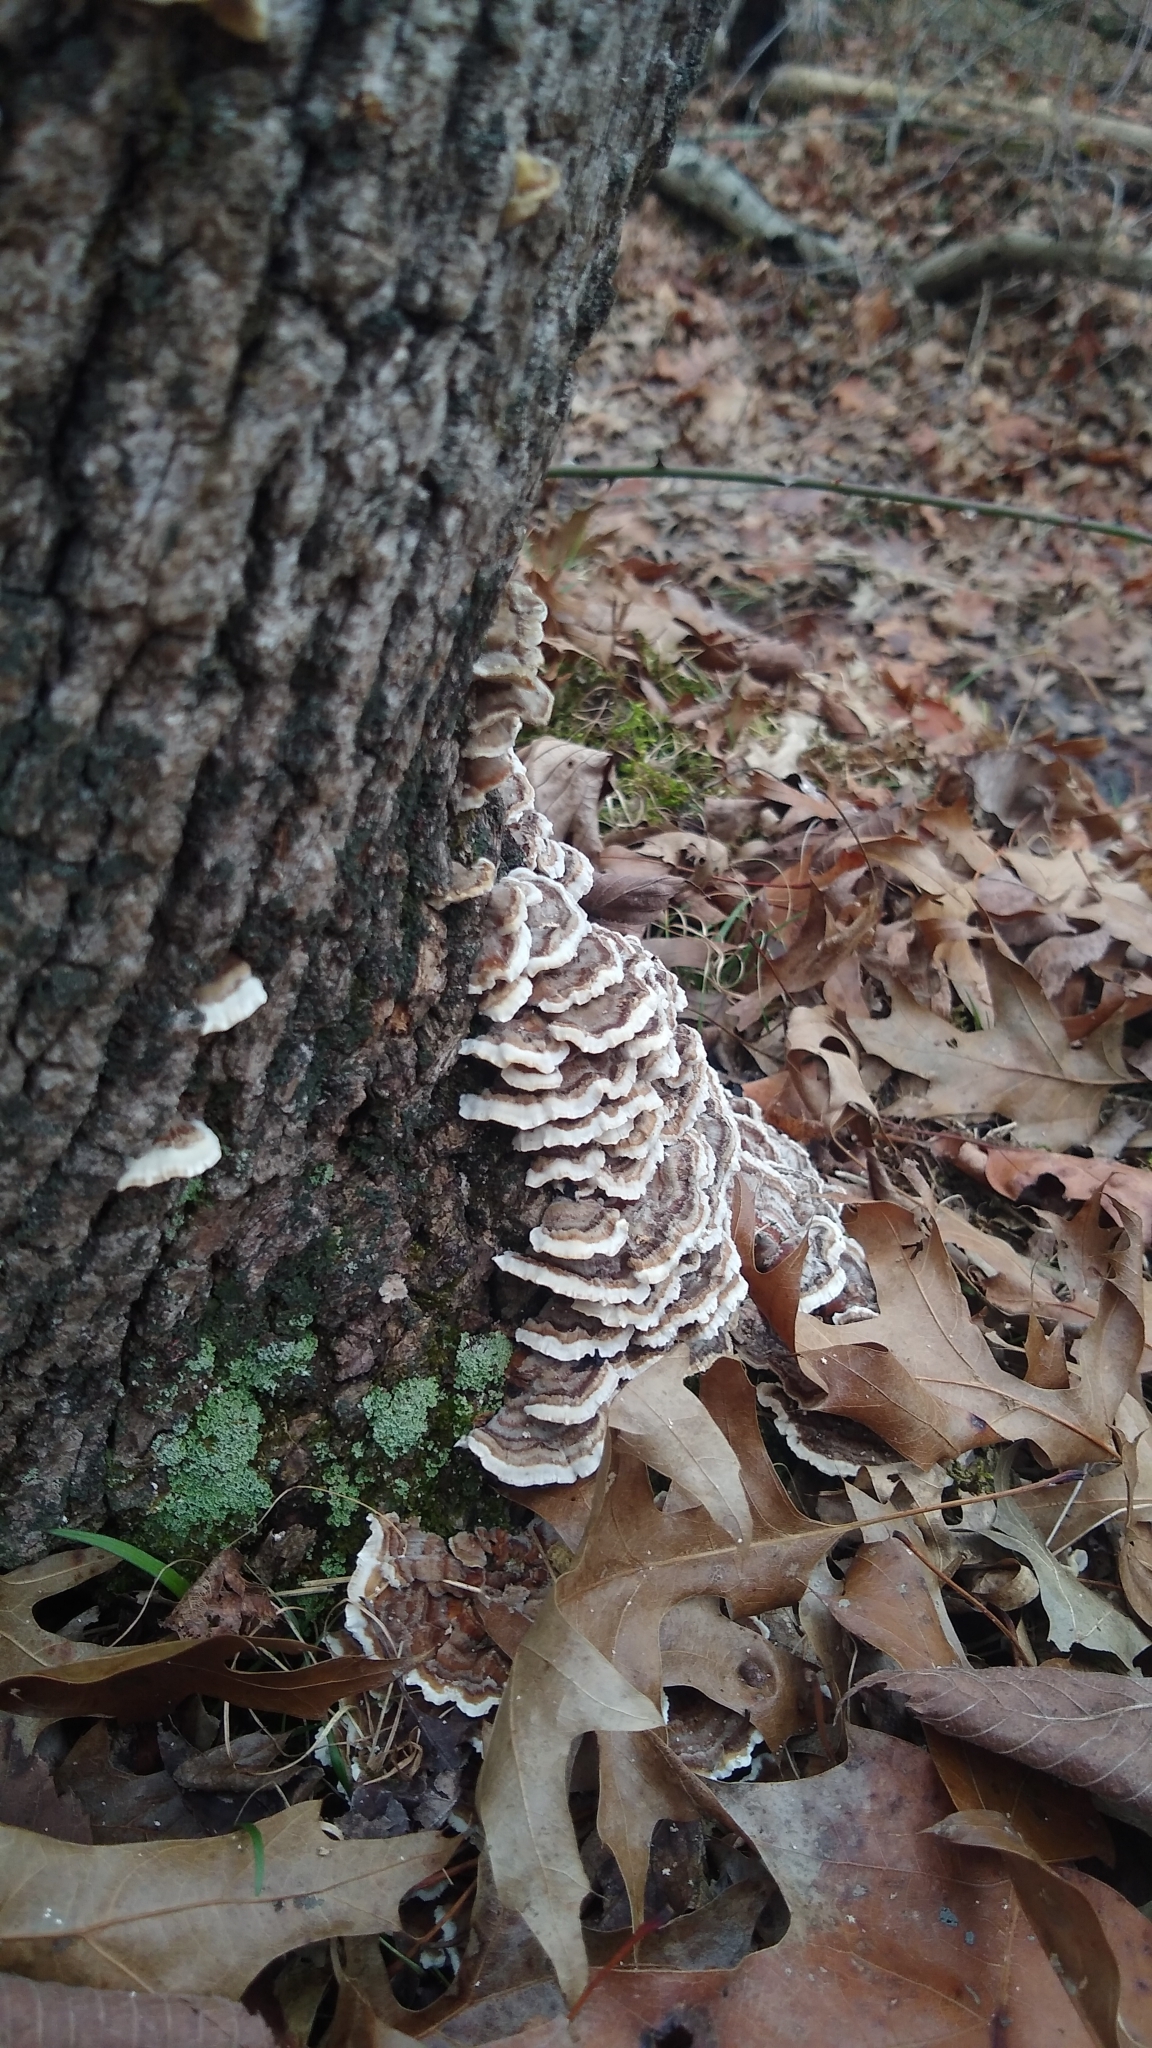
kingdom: Fungi
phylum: Basidiomycota
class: Agaricomycetes
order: Polyporales
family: Polyporaceae
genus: Trametes
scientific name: Trametes versicolor
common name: Turkeytail
